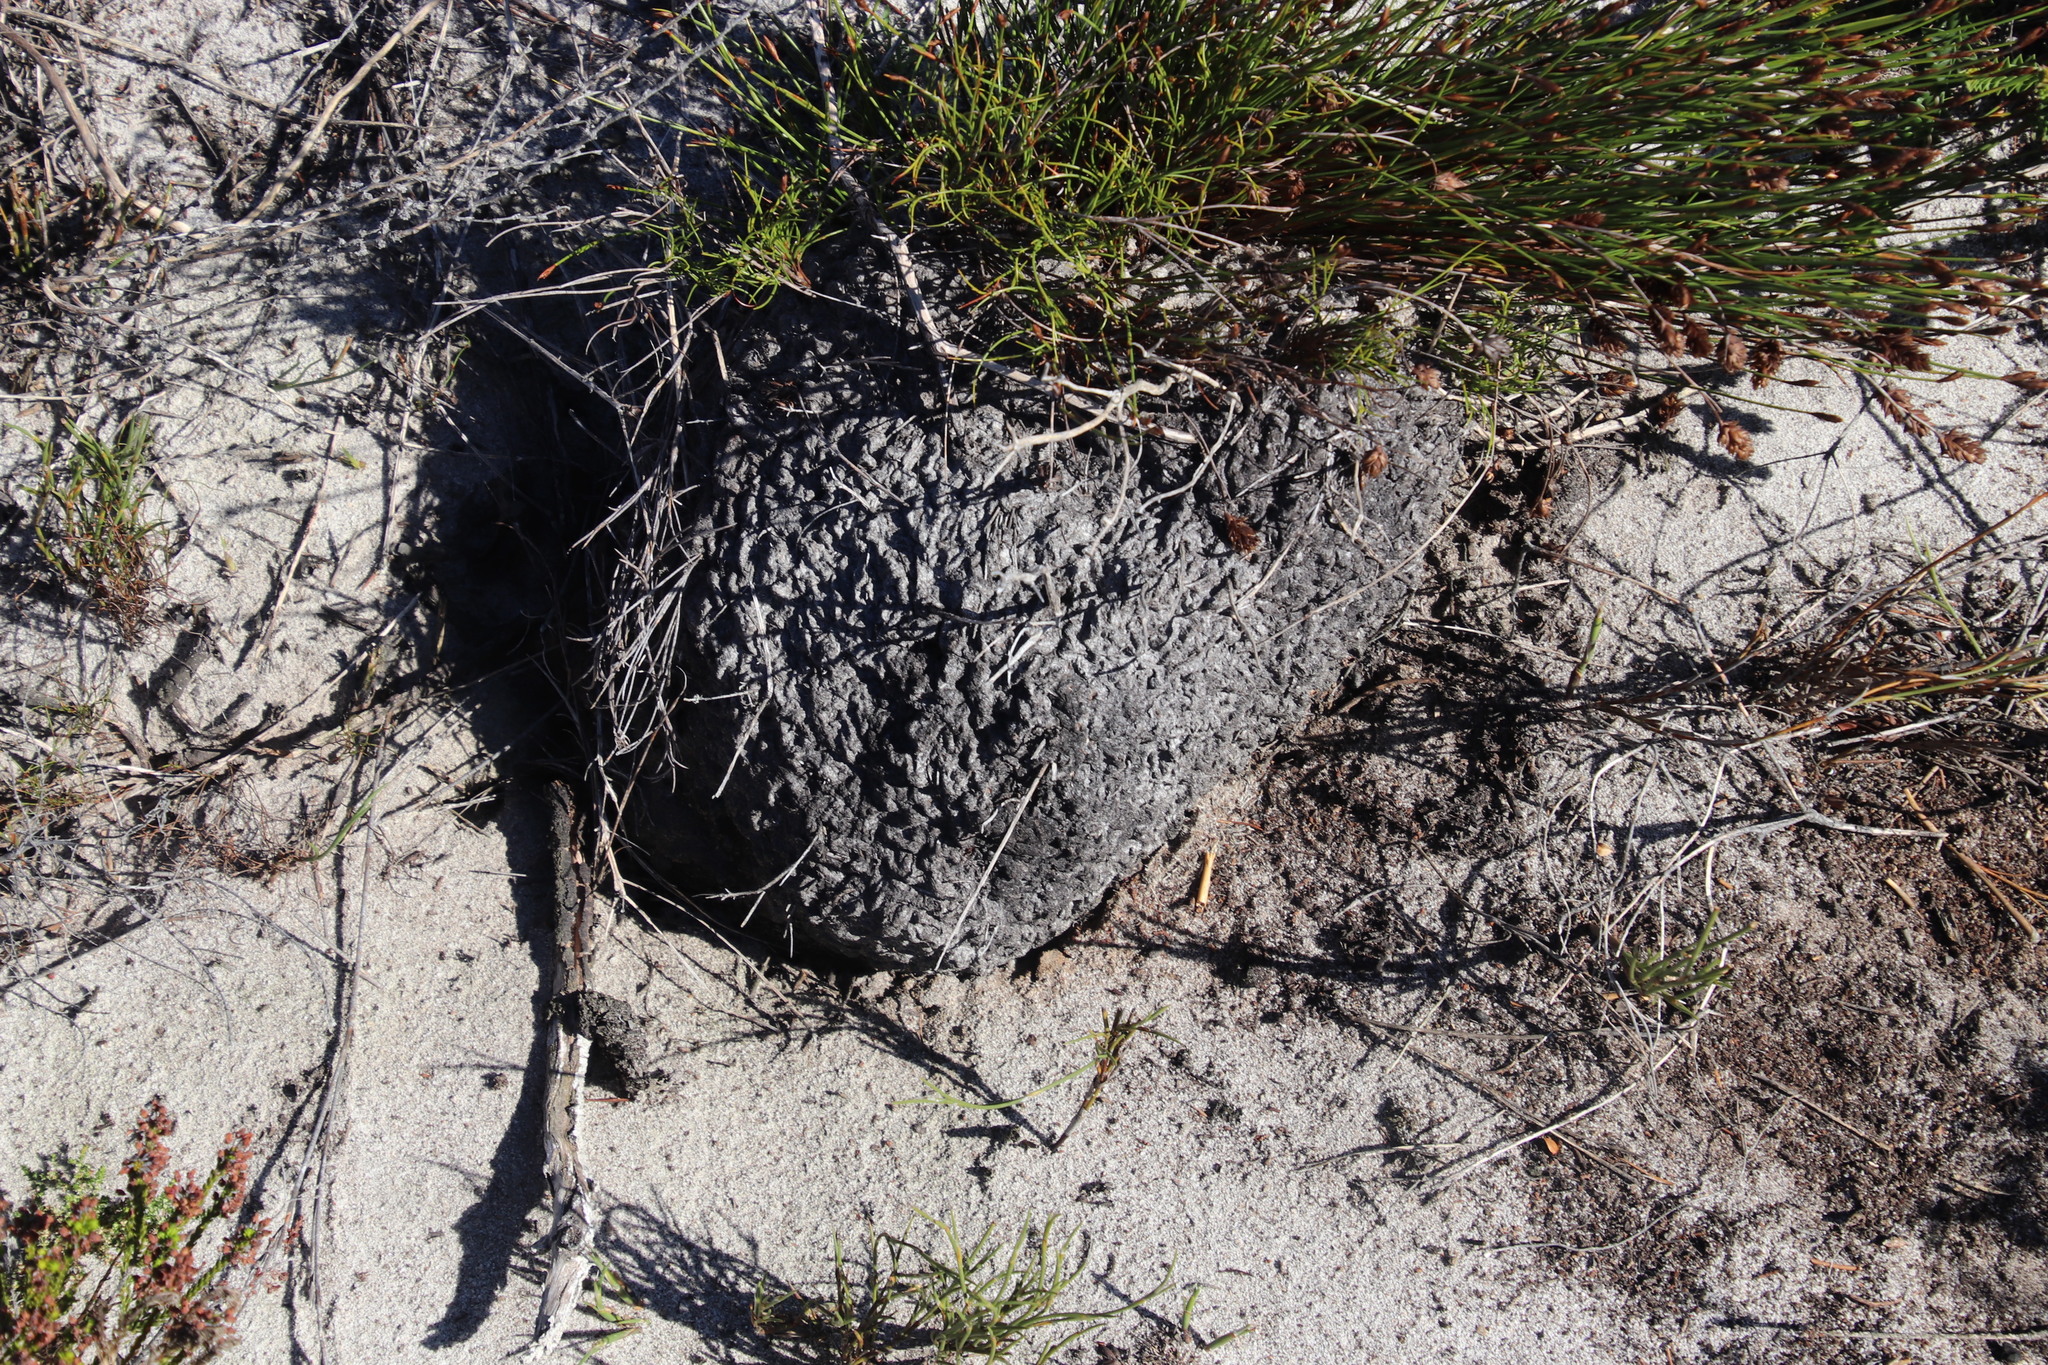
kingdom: Animalia
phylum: Arthropoda
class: Insecta
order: Hymenoptera
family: Formicidae
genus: Crematogaster
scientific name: Crematogaster peringueyi
